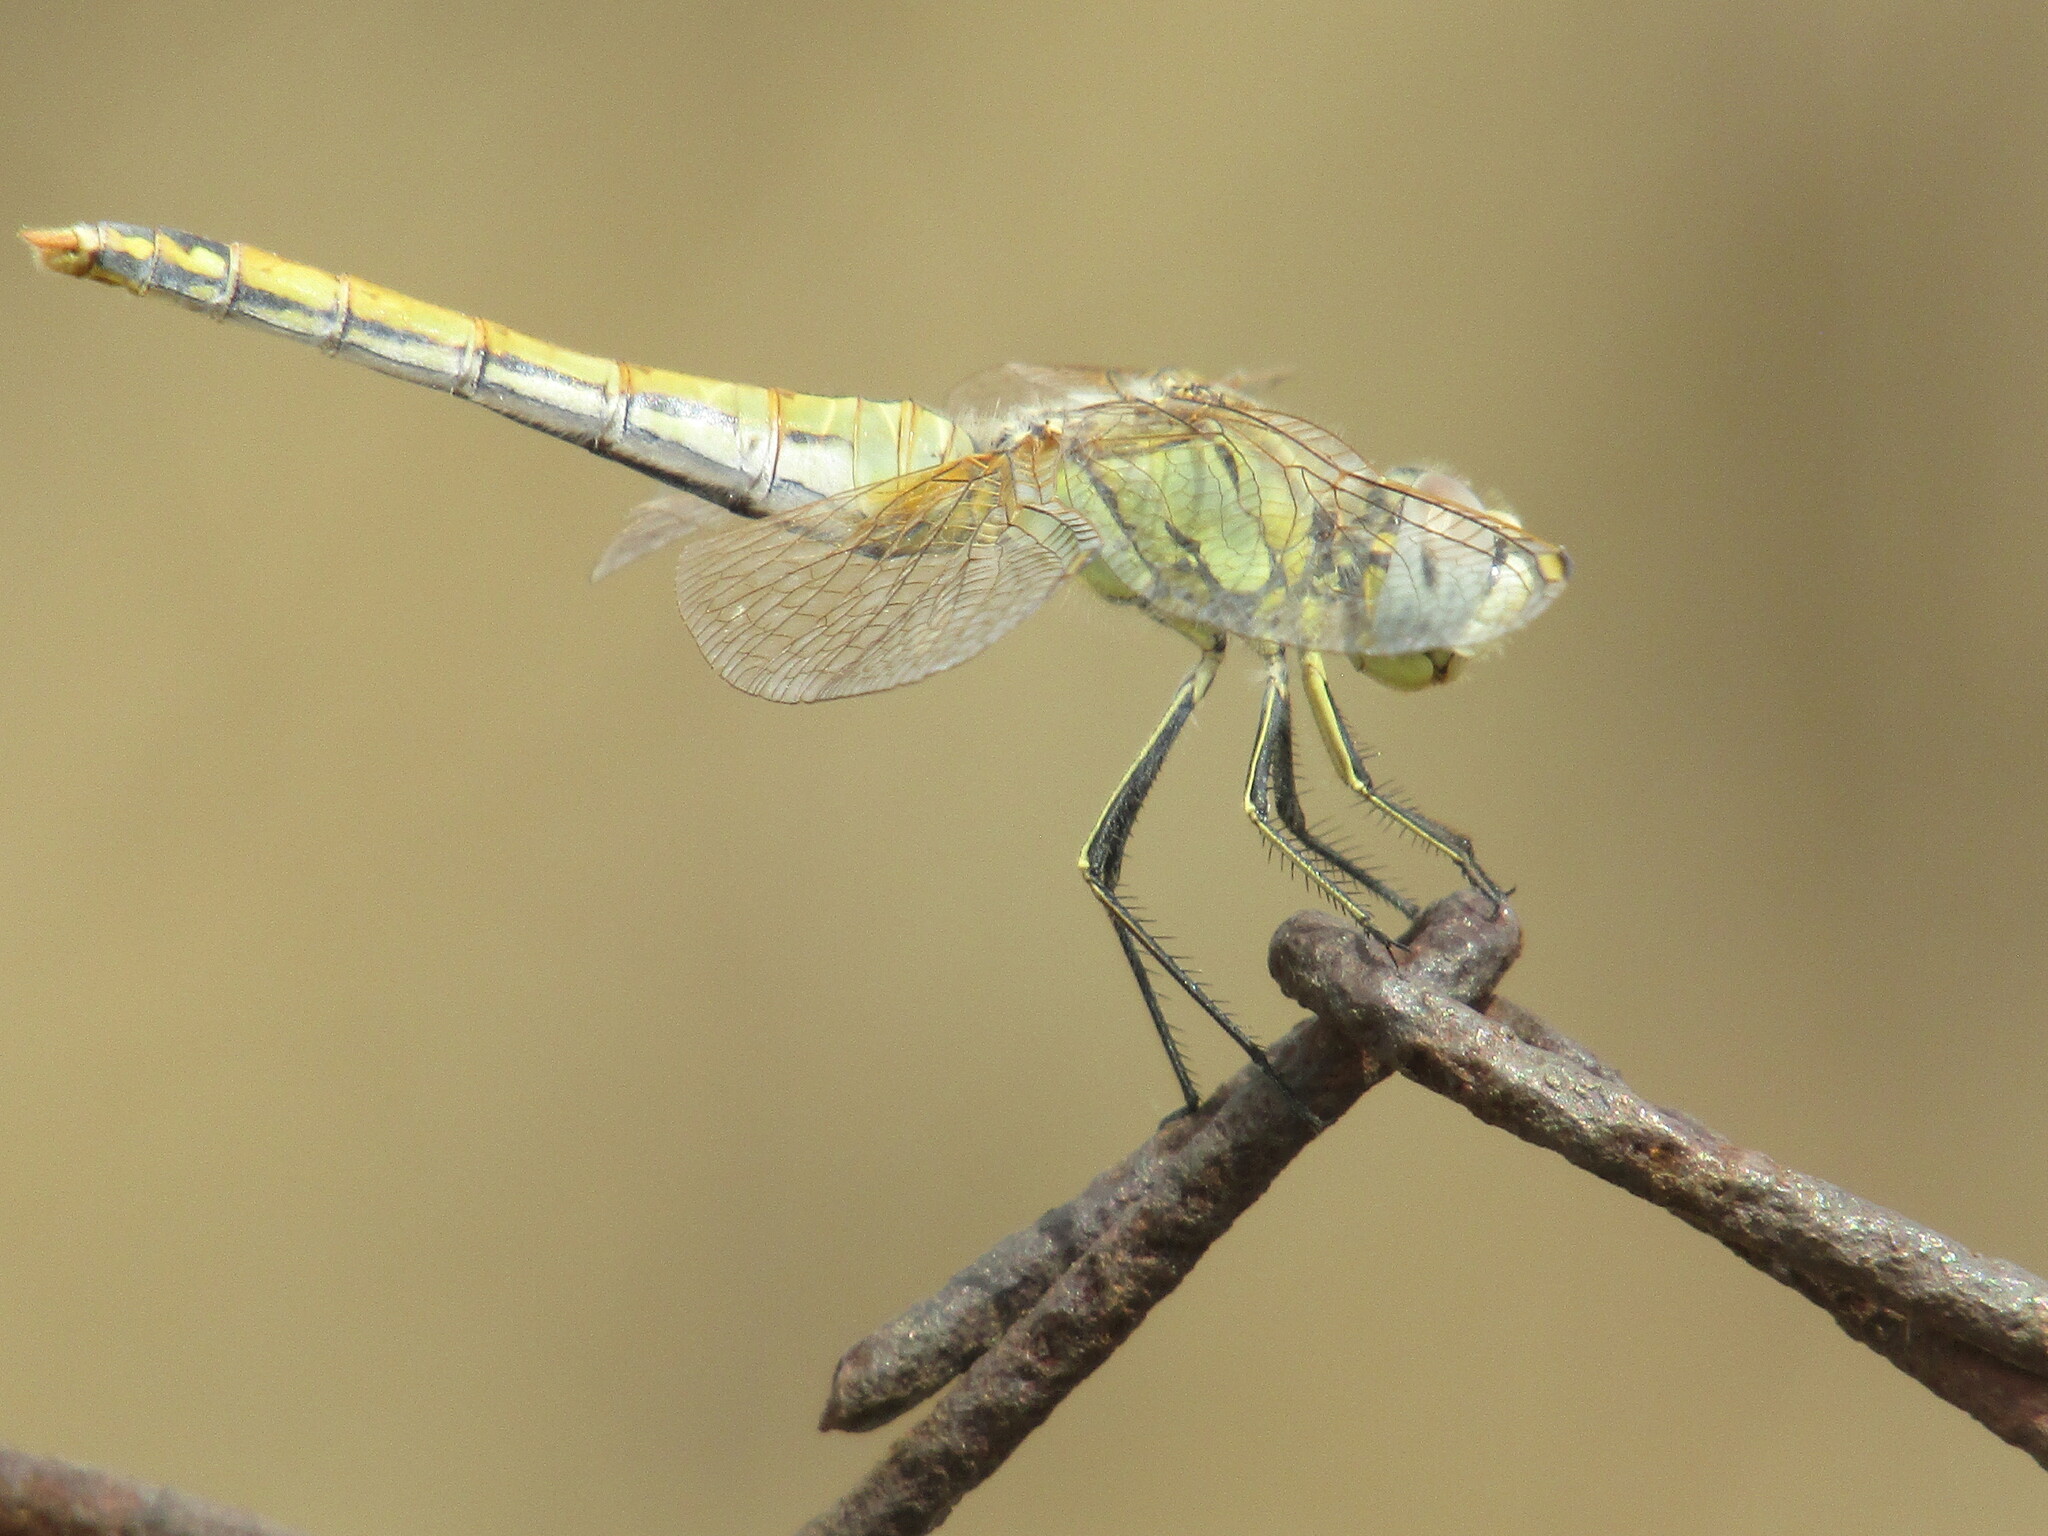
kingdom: Animalia
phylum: Arthropoda
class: Insecta
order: Odonata
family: Libellulidae
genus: Sympetrum
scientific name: Sympetrum fonscolombii
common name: Red-veined darter
